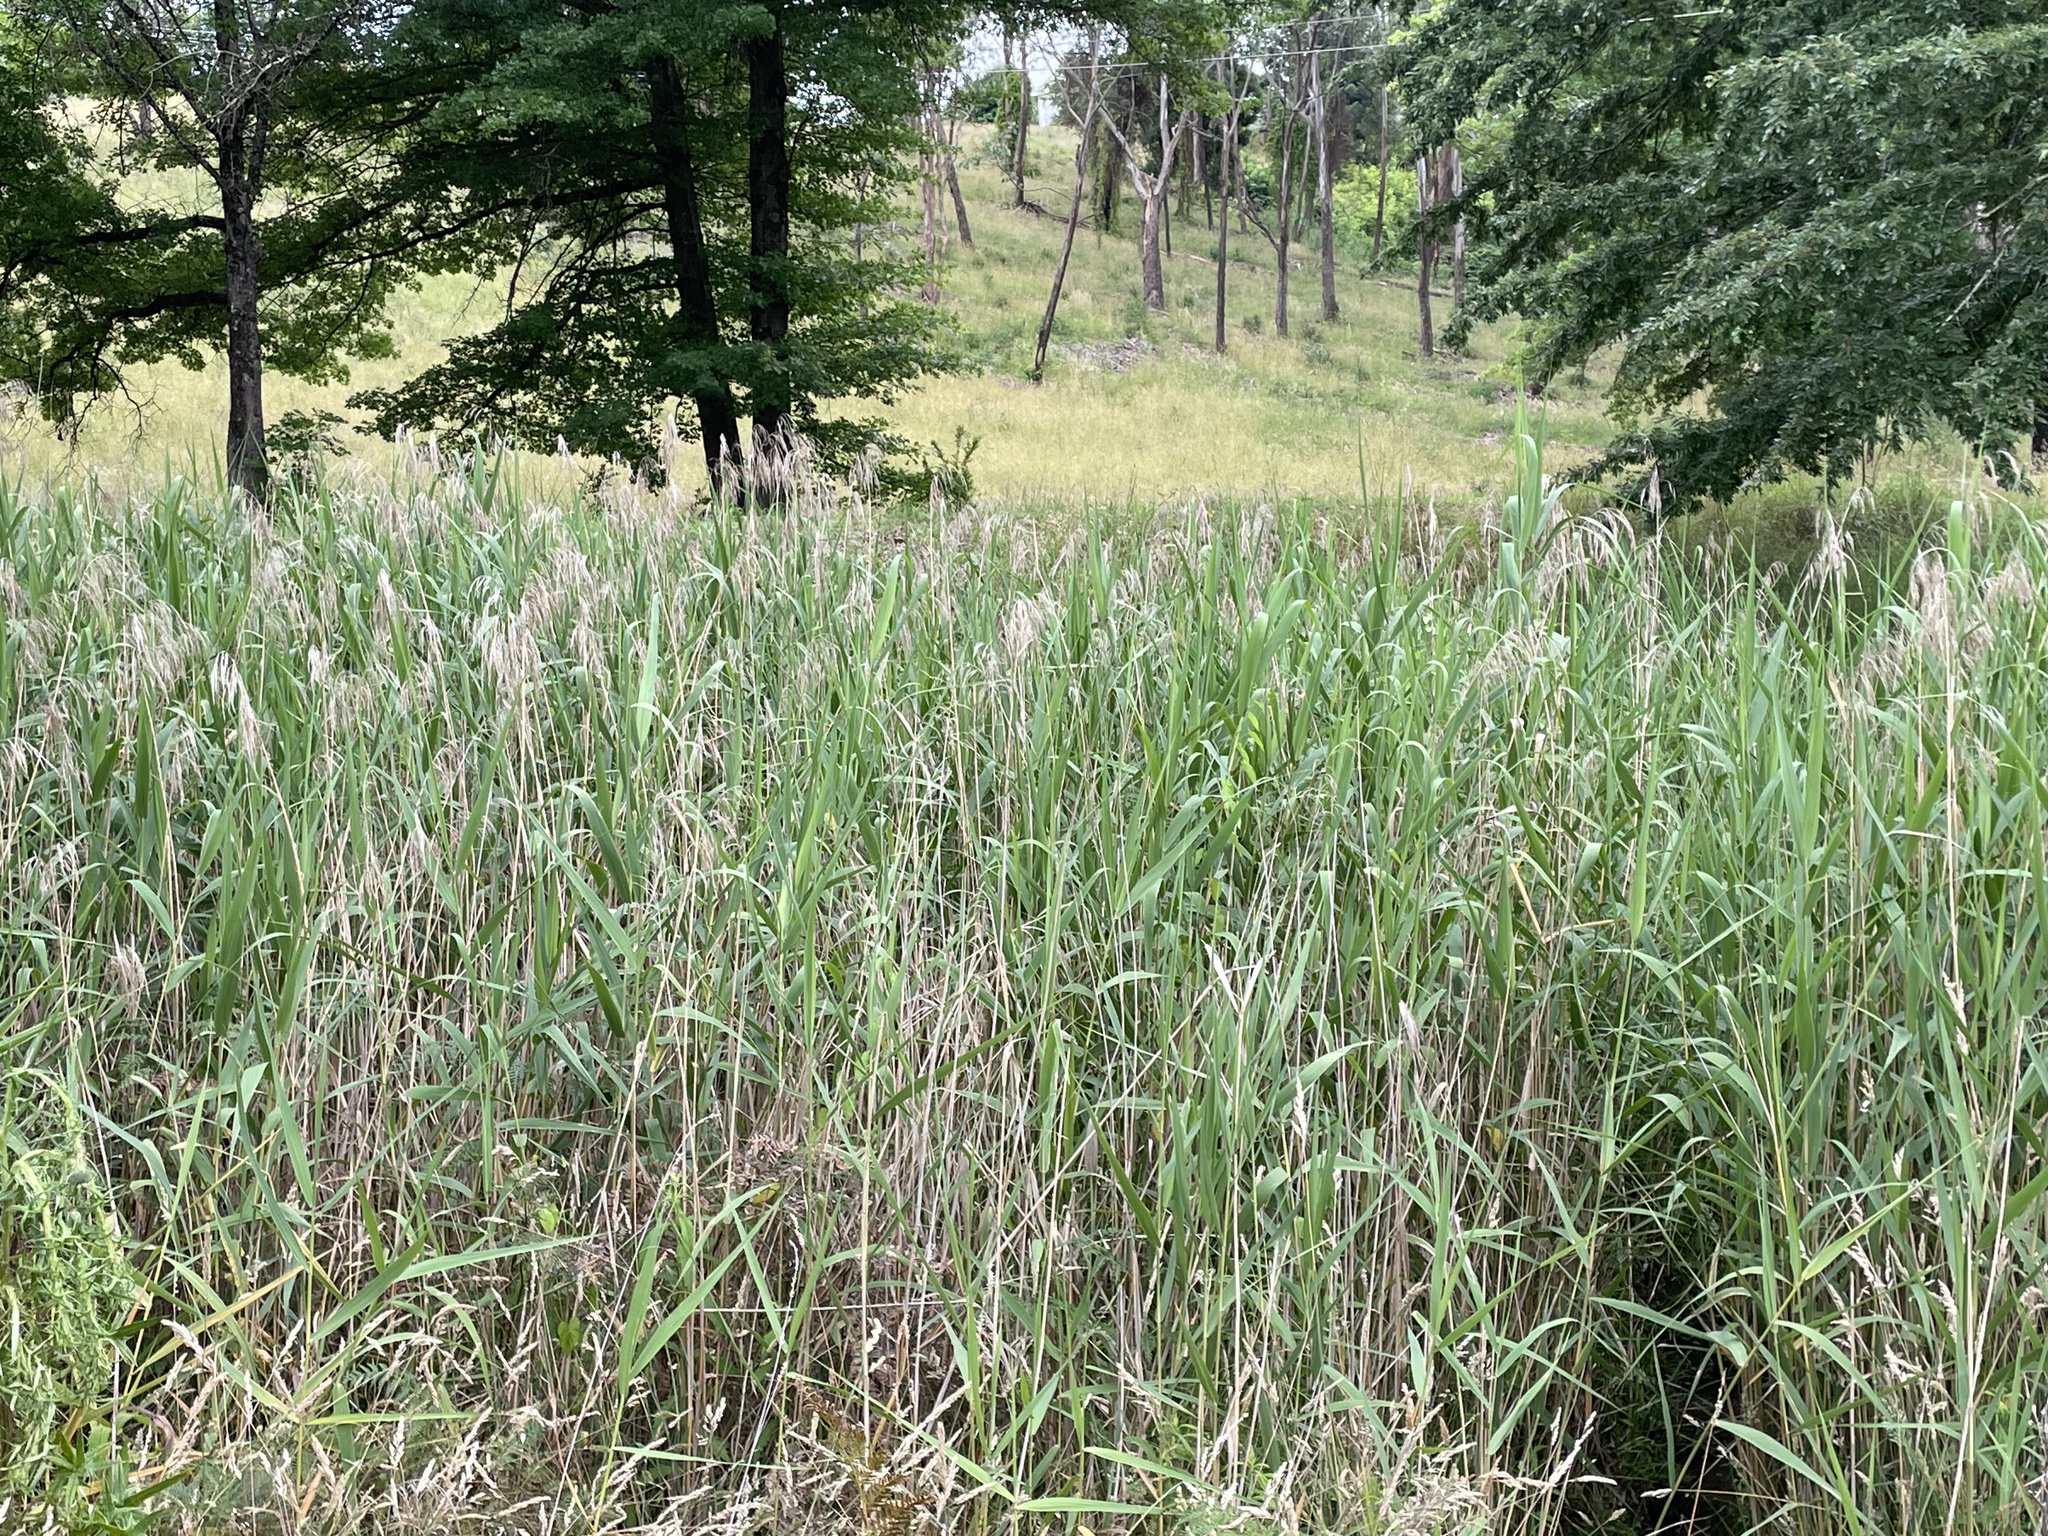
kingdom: Plantae
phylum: Tracheophyta
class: Liliopsida
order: Poales
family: Poaceae
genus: Phragmites
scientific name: Phragmites australis
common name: Common reed
